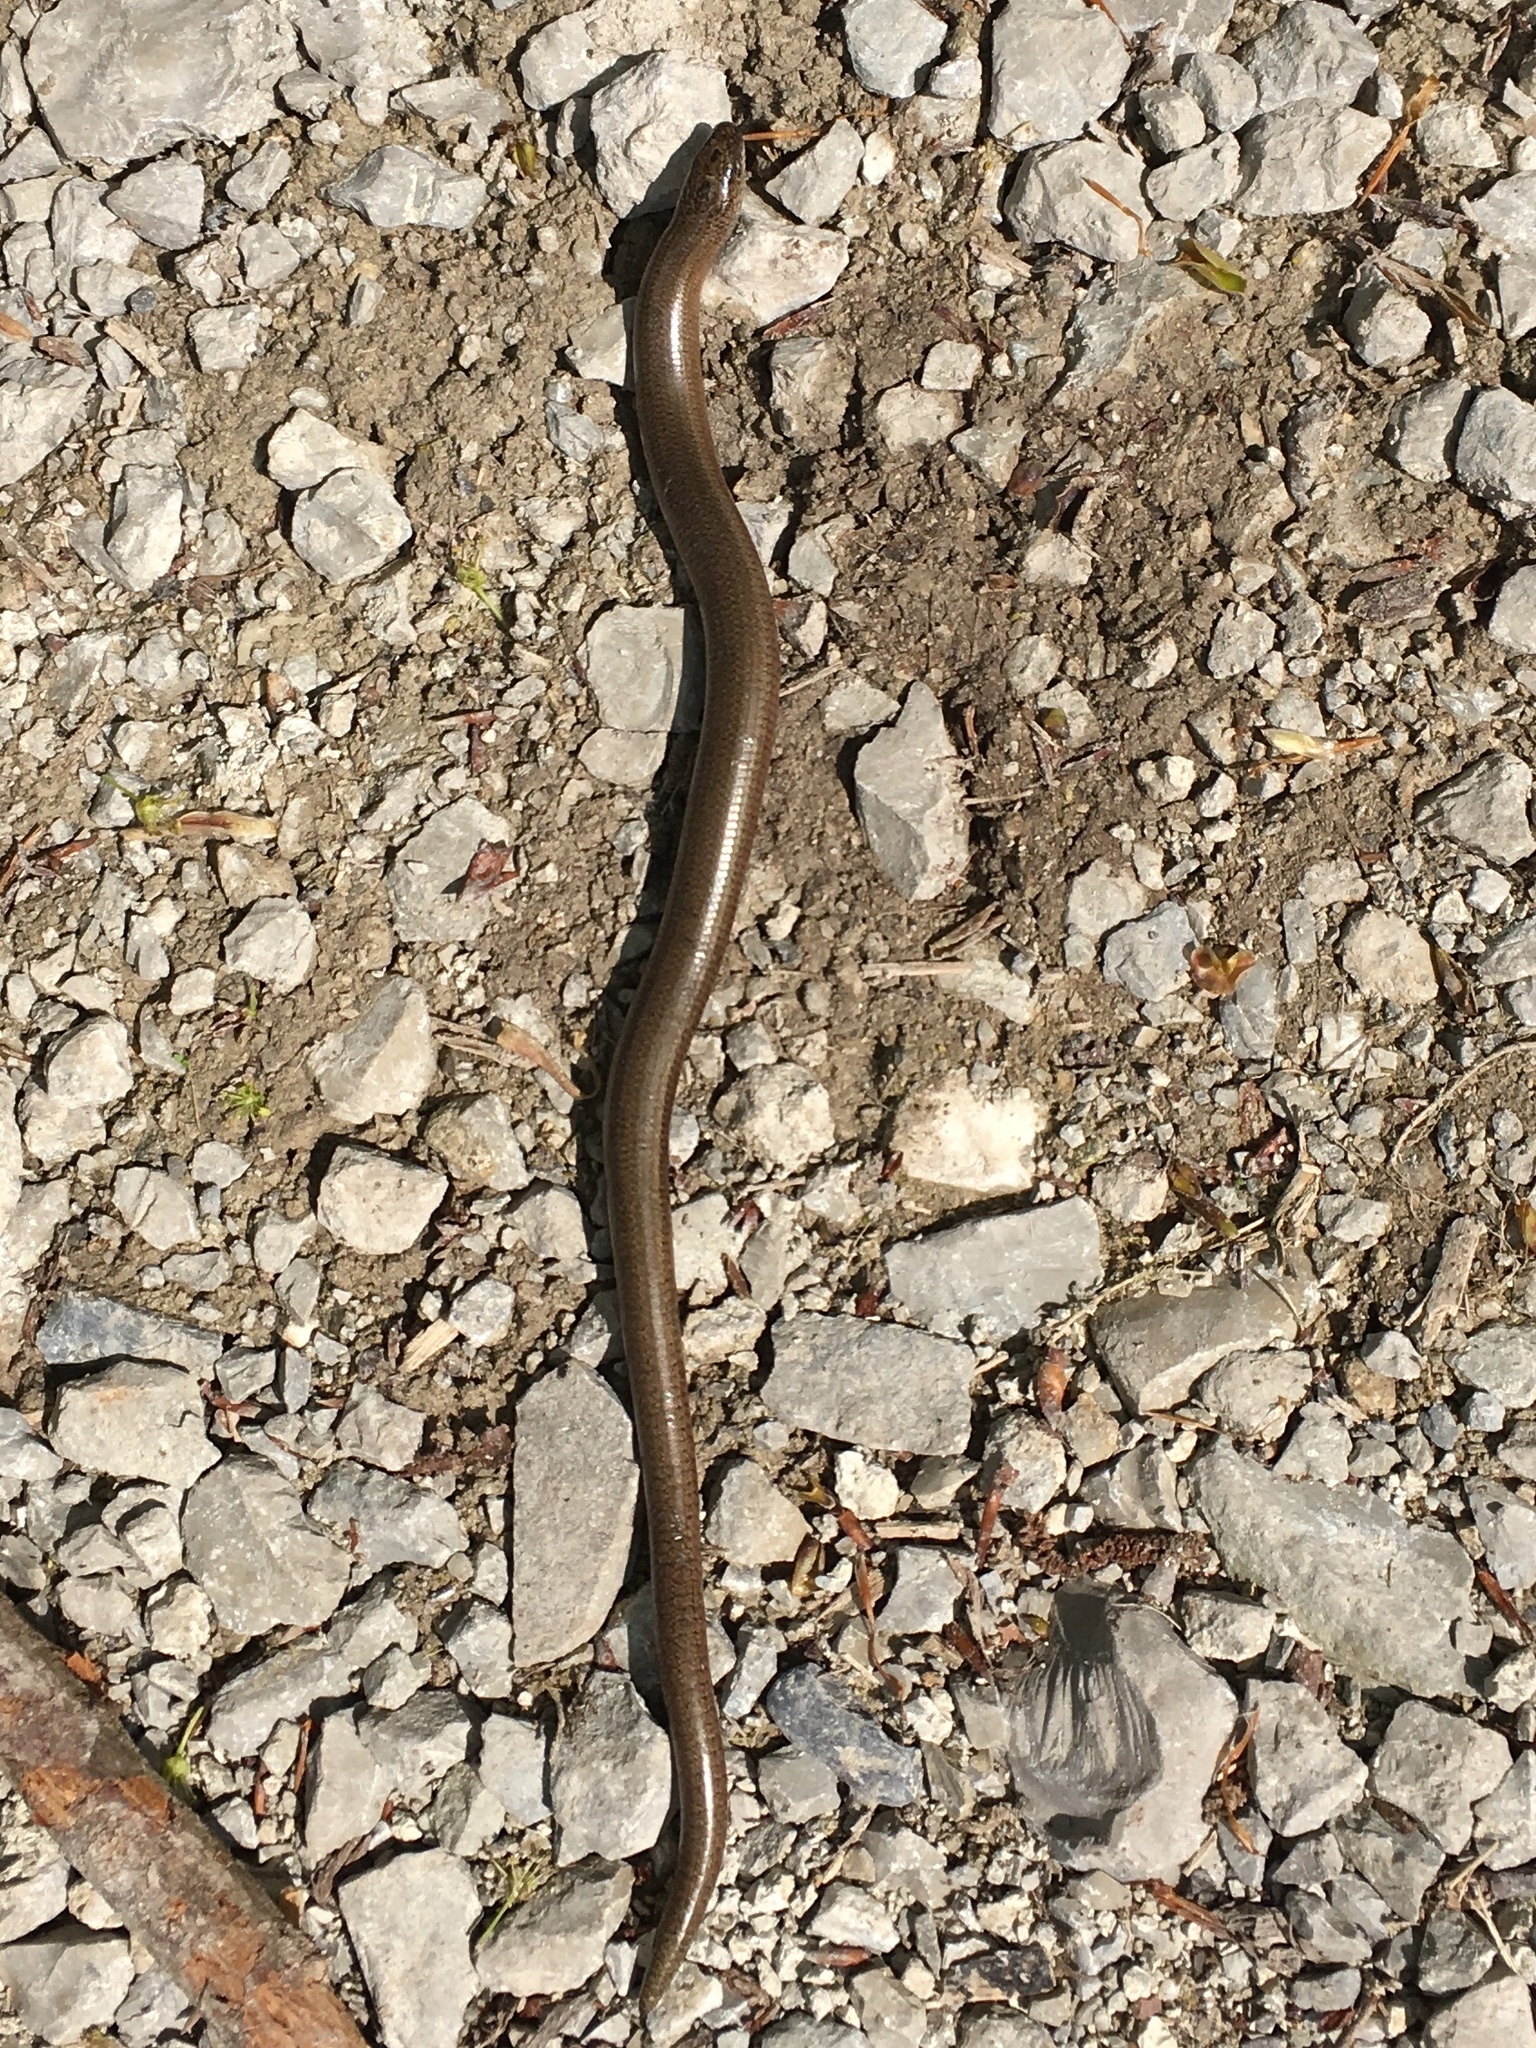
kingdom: Animalia
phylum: Chordata
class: Squamata
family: Anguidae
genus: Anguis
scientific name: Anguis fragilis
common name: Slow worm
